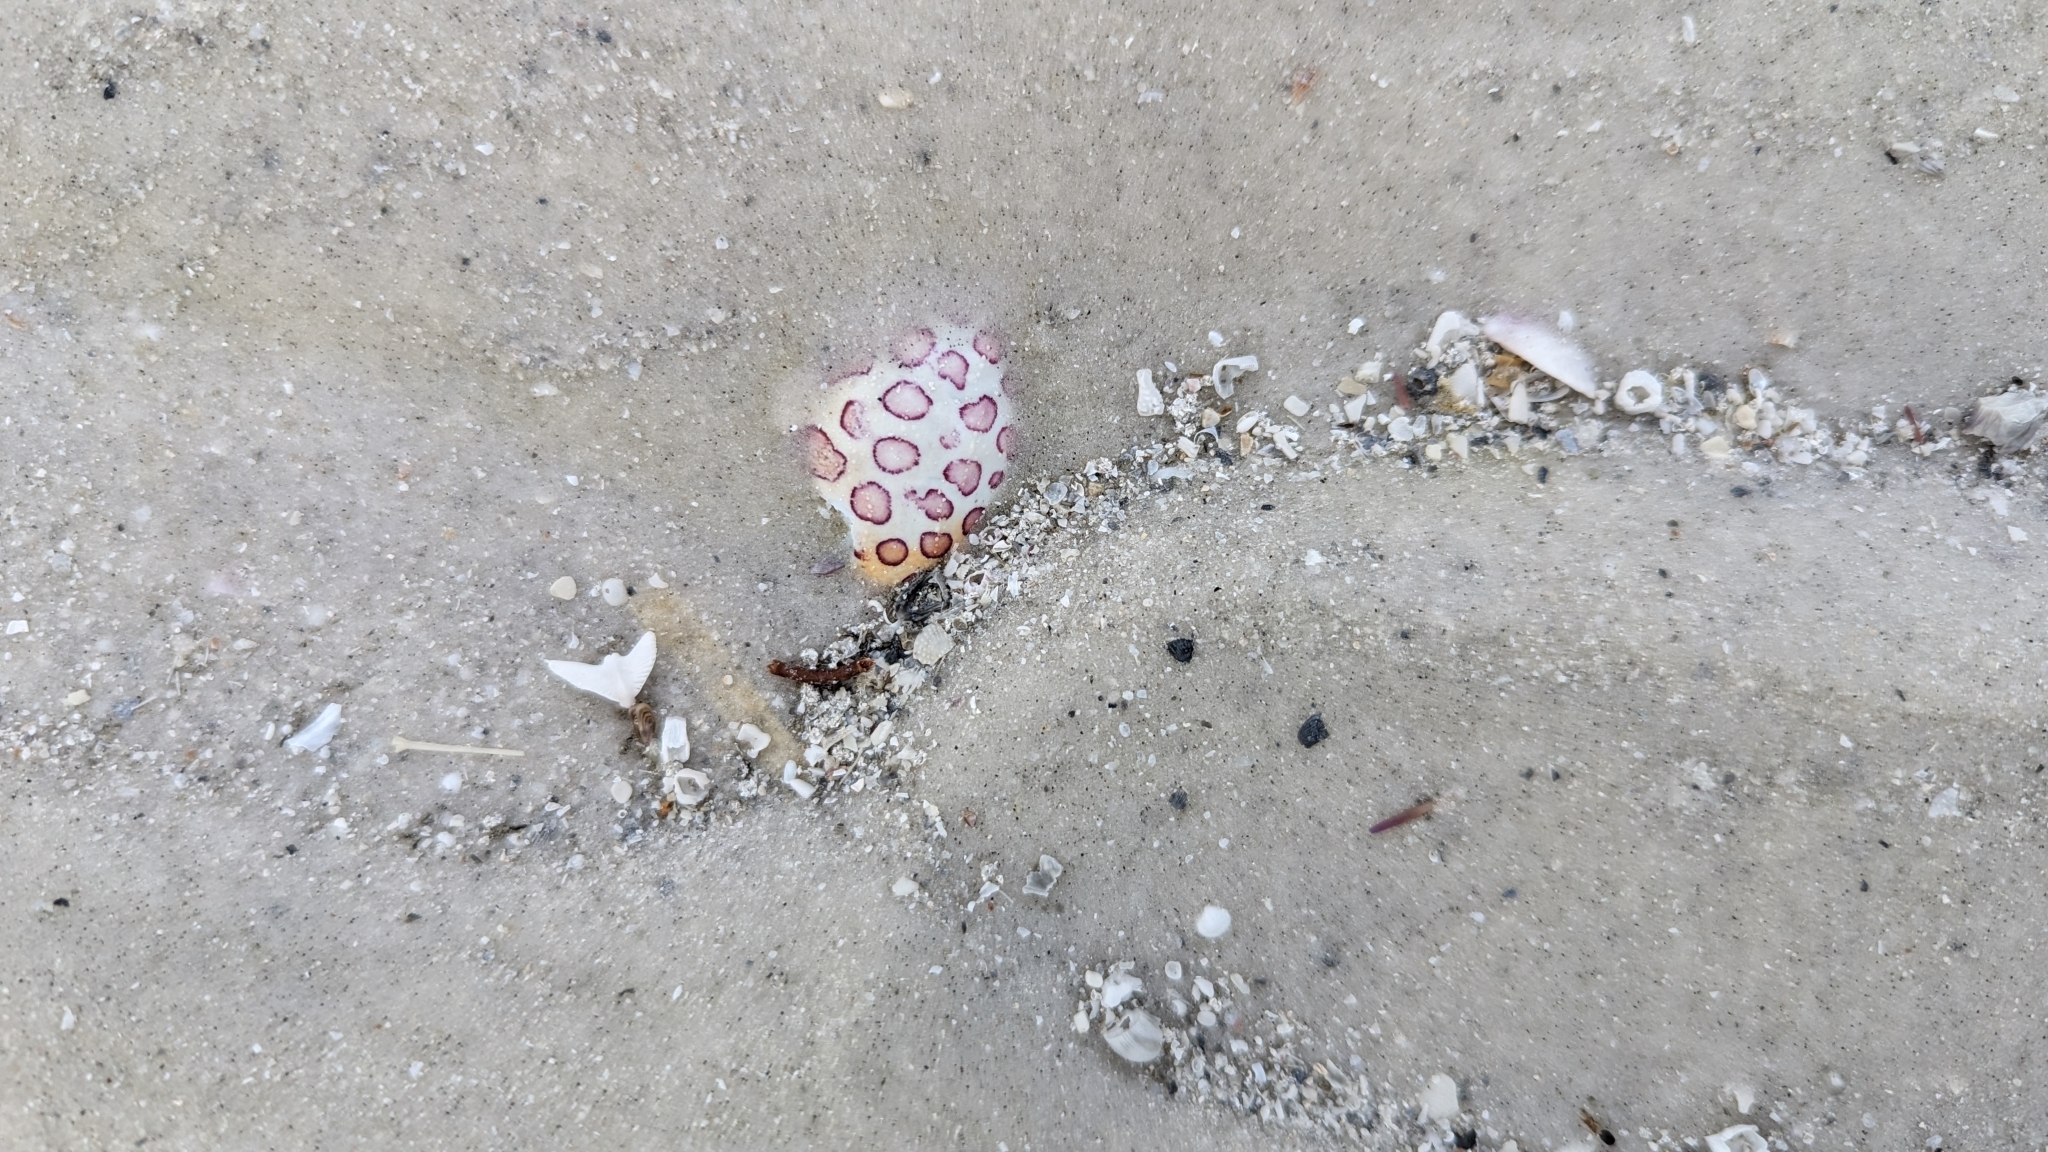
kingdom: Animalia
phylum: Arthropoda
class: Malacostraca
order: Decapoda
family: Aethridae
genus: Hepatus
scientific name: Hepatus epheliticus
